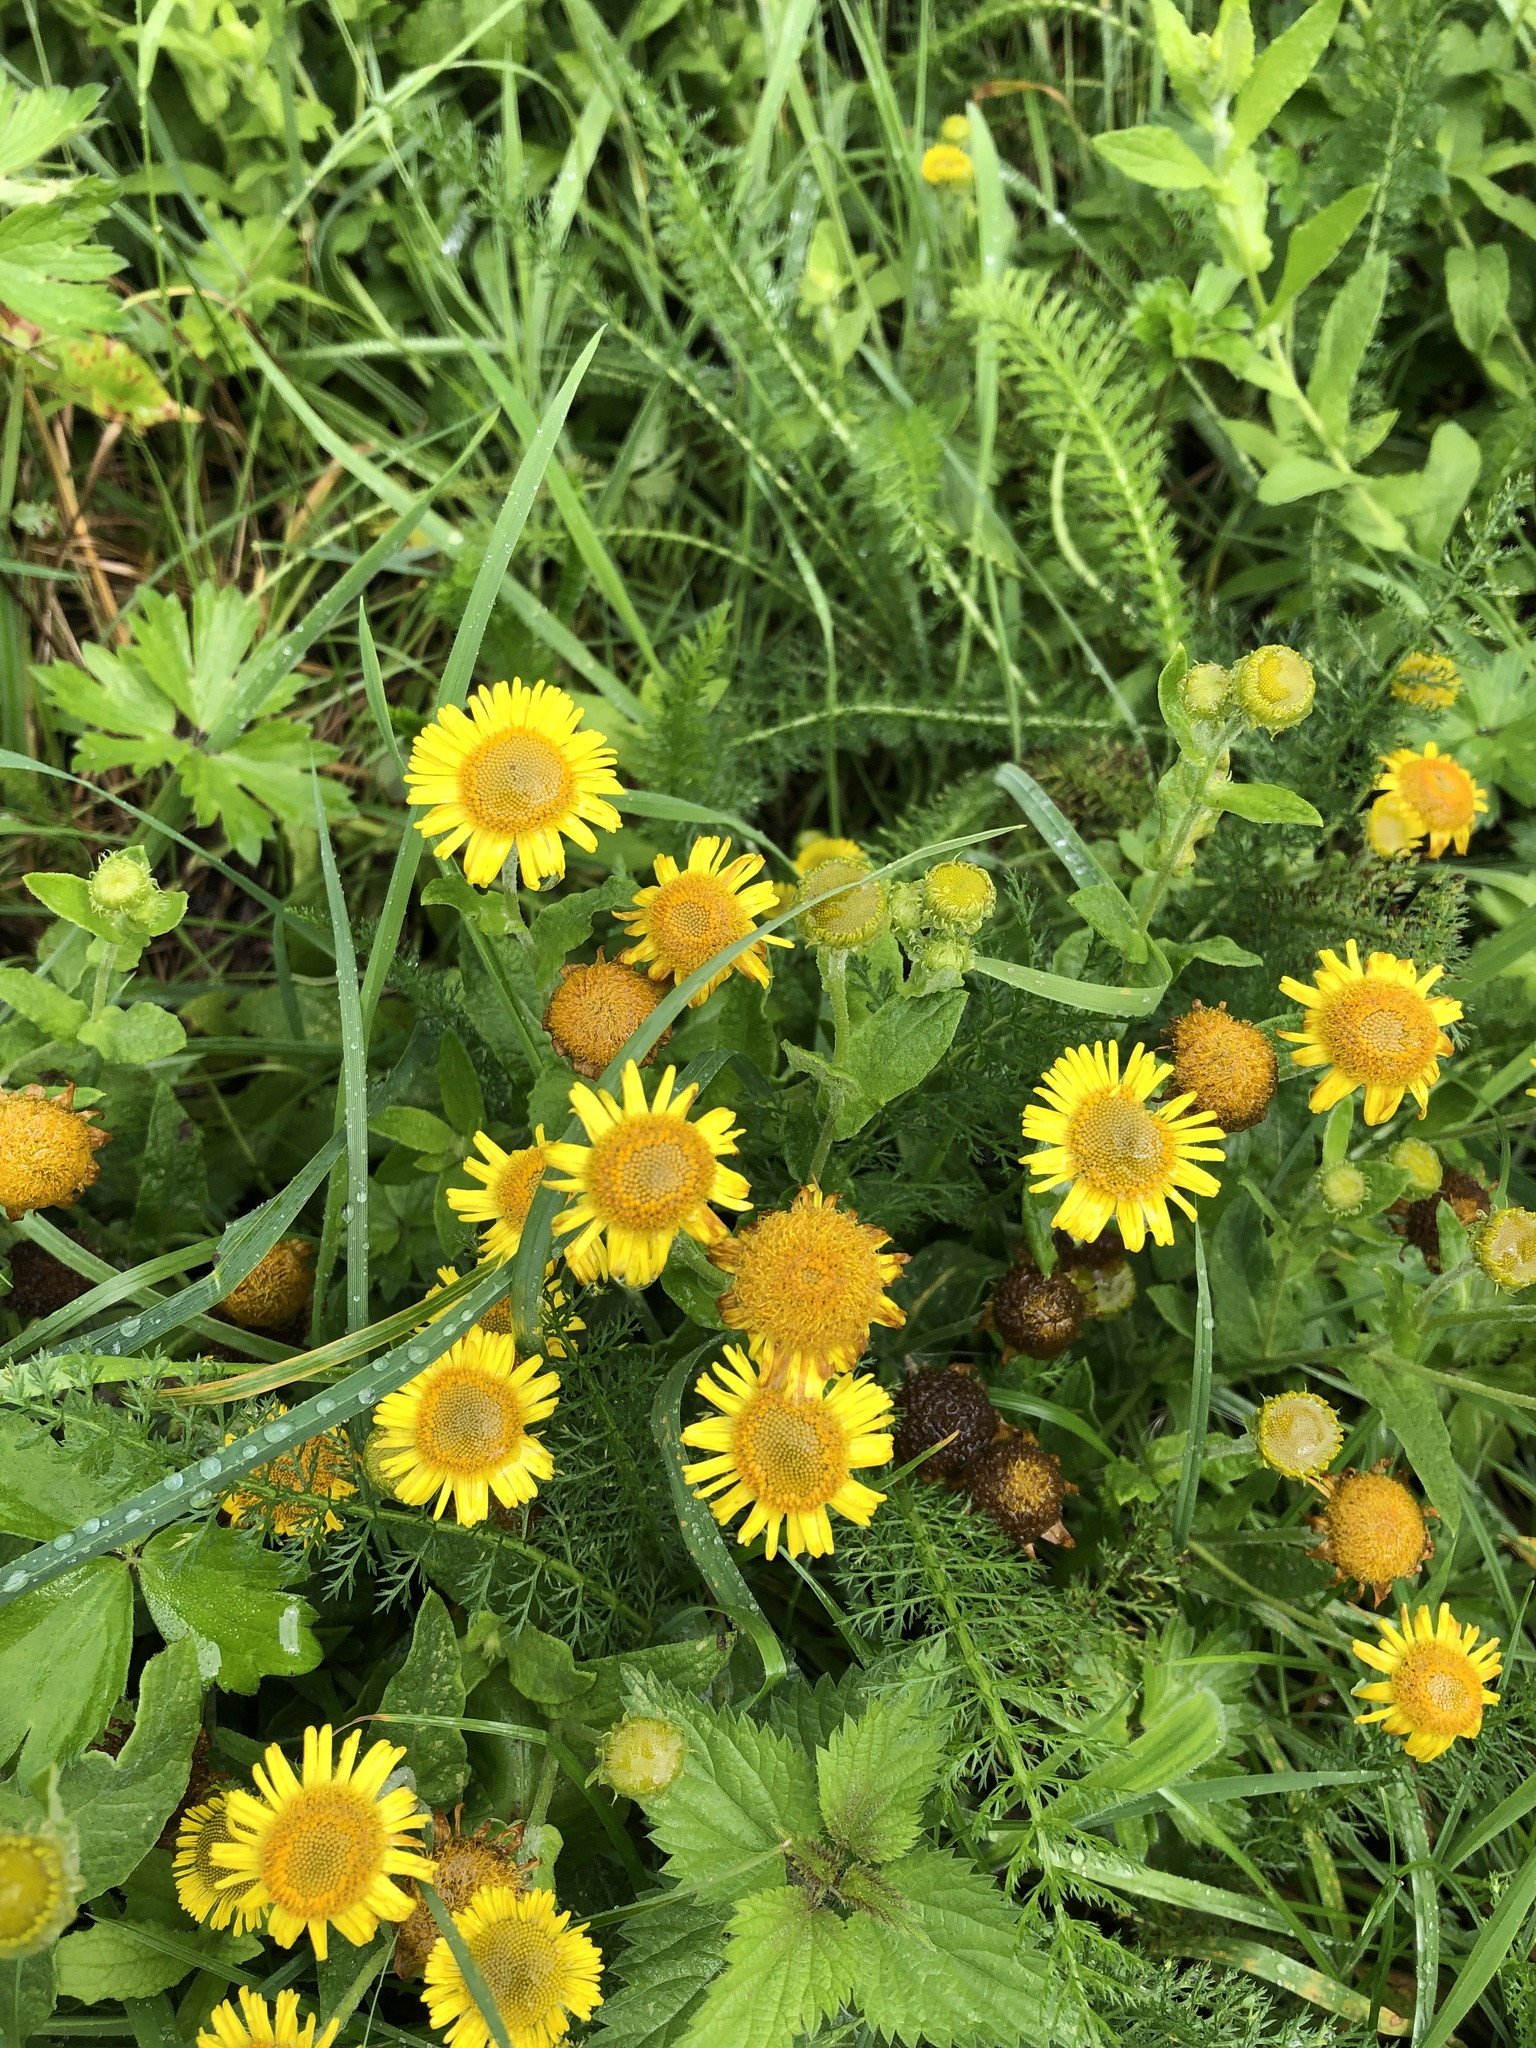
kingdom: Plantae
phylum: Tracheophyta
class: Magnoliopsida
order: Asterales
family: Asteraceae
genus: Pulicaria
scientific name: Pulicaria dysenterica
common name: Common fleabane
